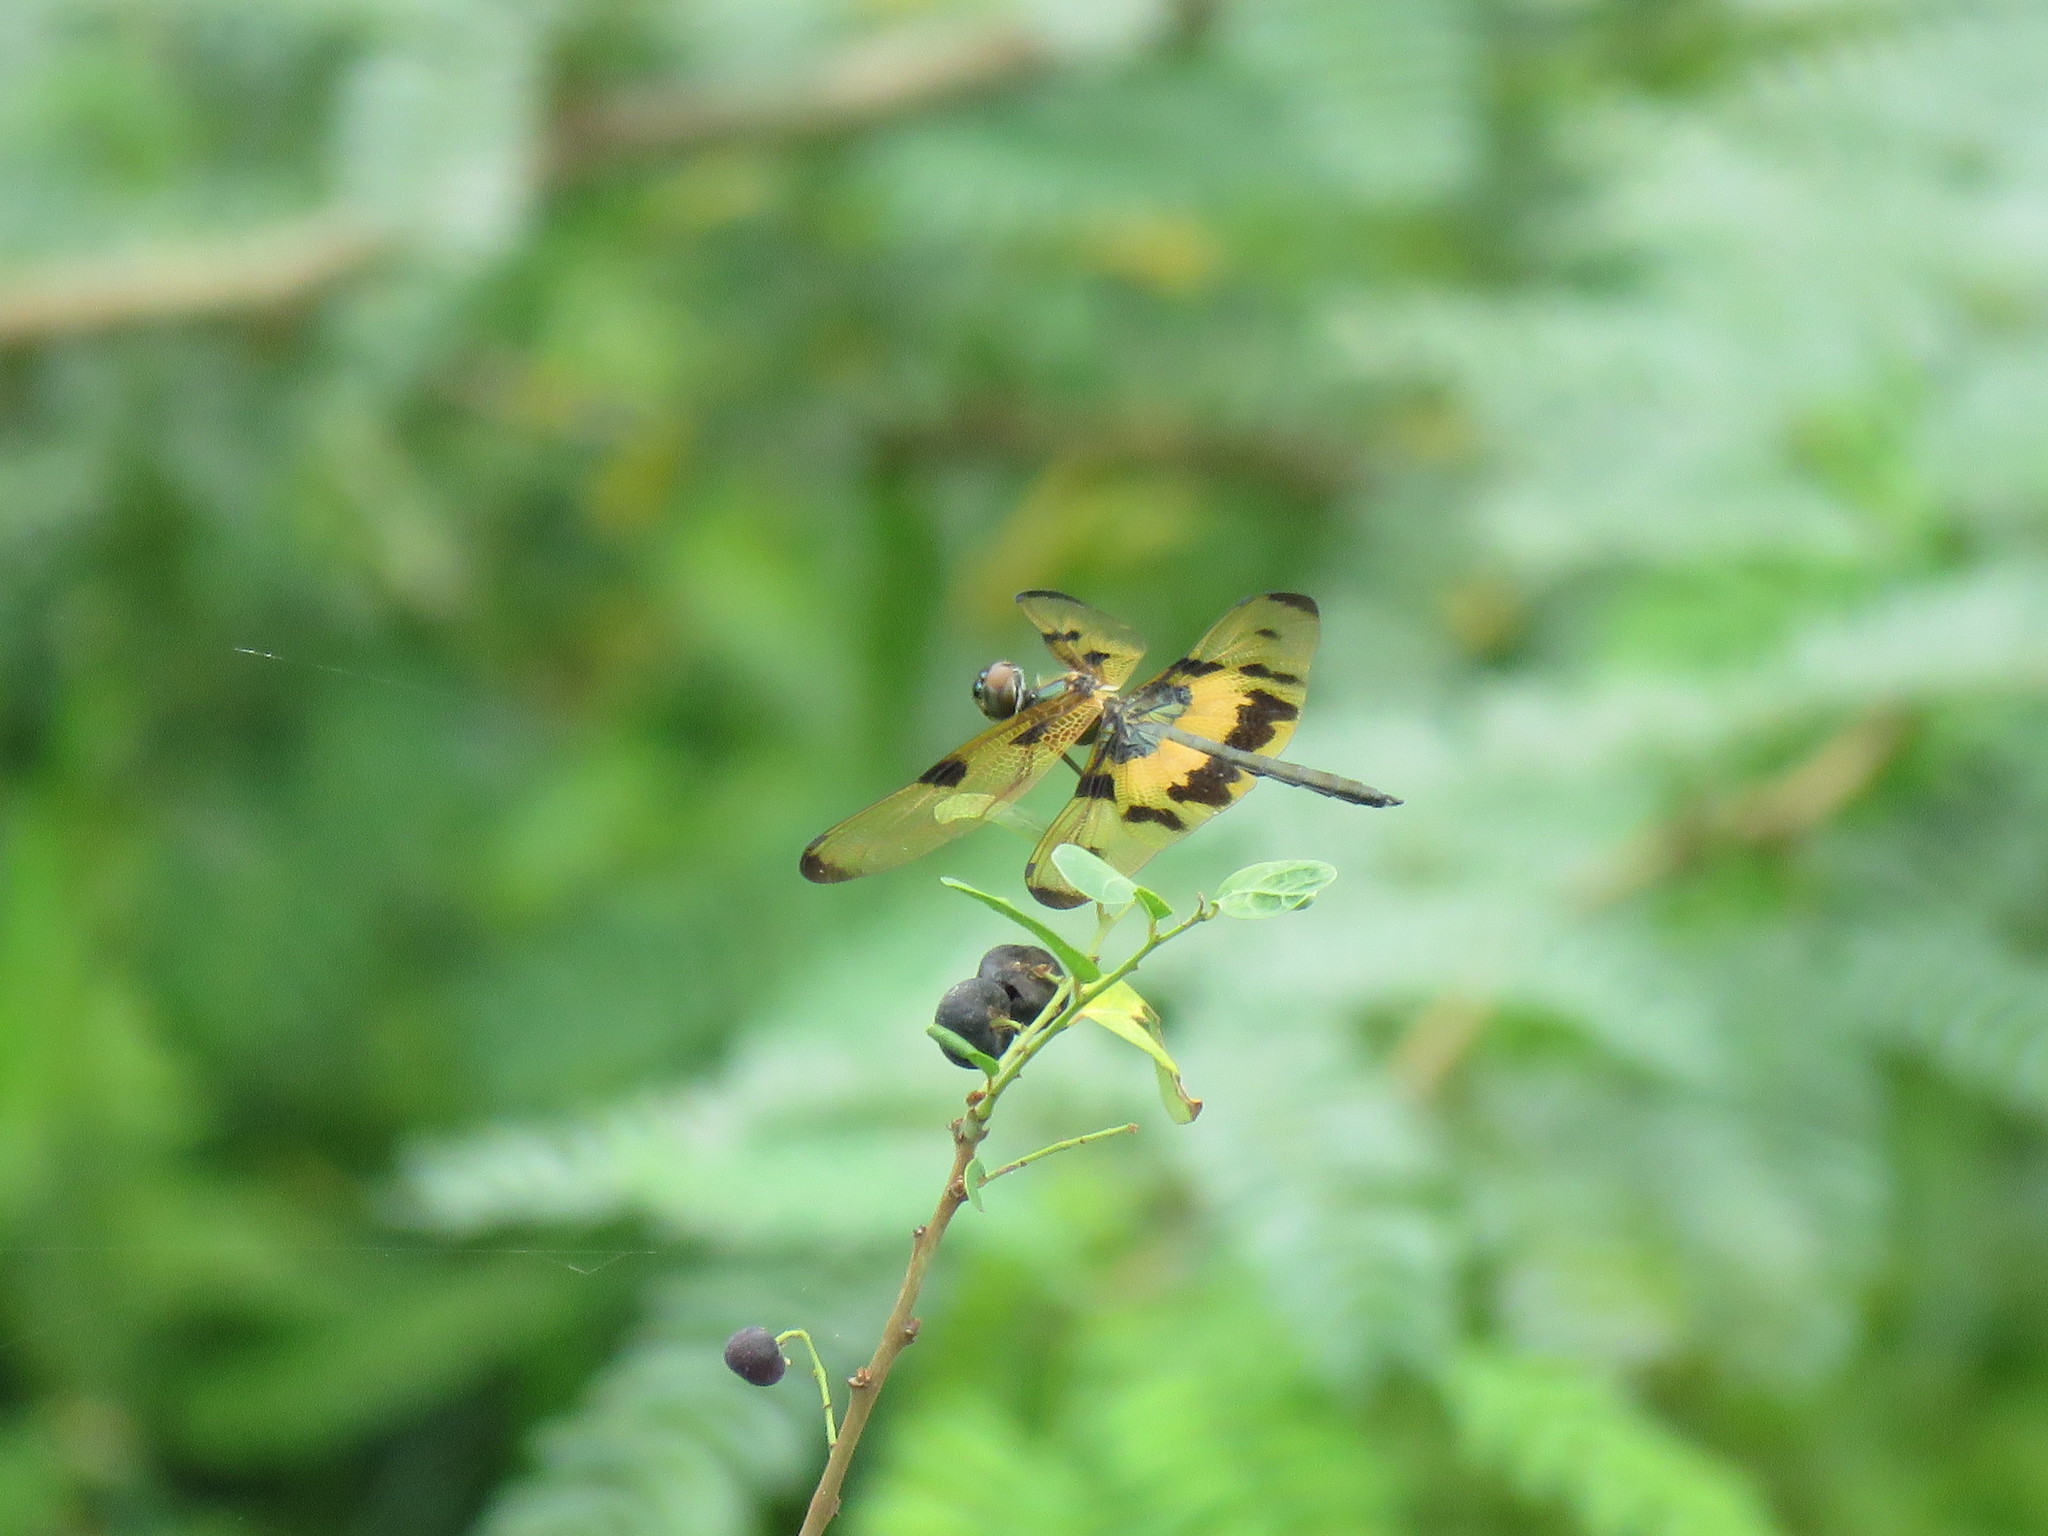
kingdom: Animalia
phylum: Arthropoda
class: Insecta
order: Odonata
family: Libellulidae
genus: Rhyothemis
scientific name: Rhyothemis variegata
